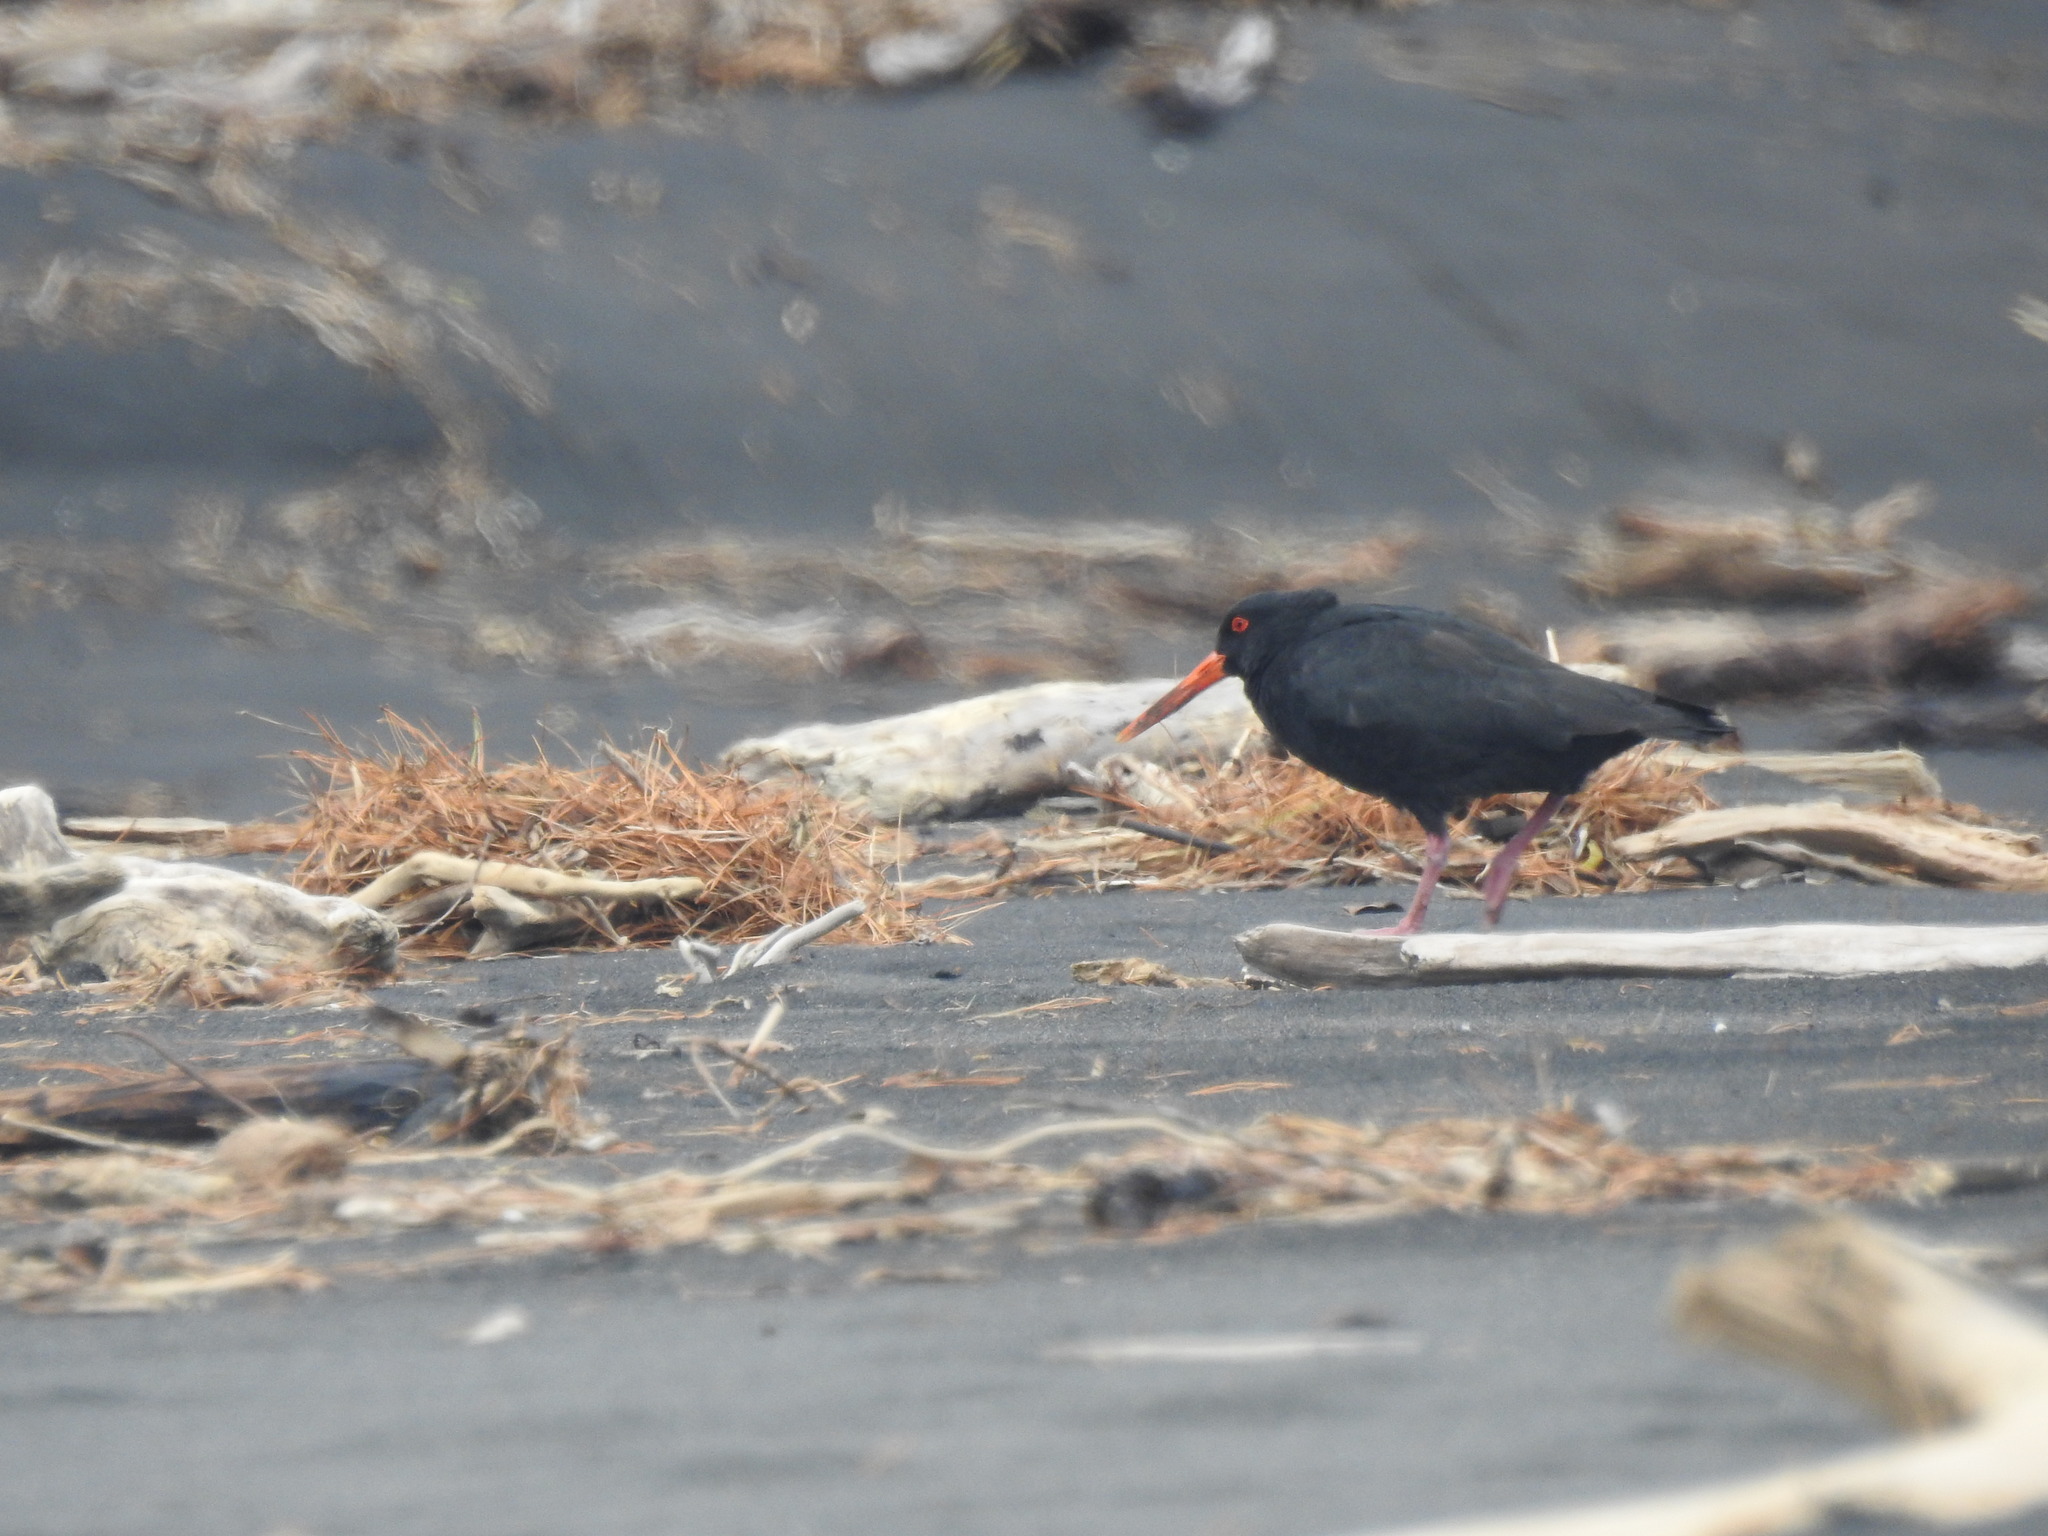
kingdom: Animalia
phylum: Chordata
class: Aves
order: Charadriiformes
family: Haematopodidae
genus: Haematopus
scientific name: Haematopus unicolor
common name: Variable oystercatcher
